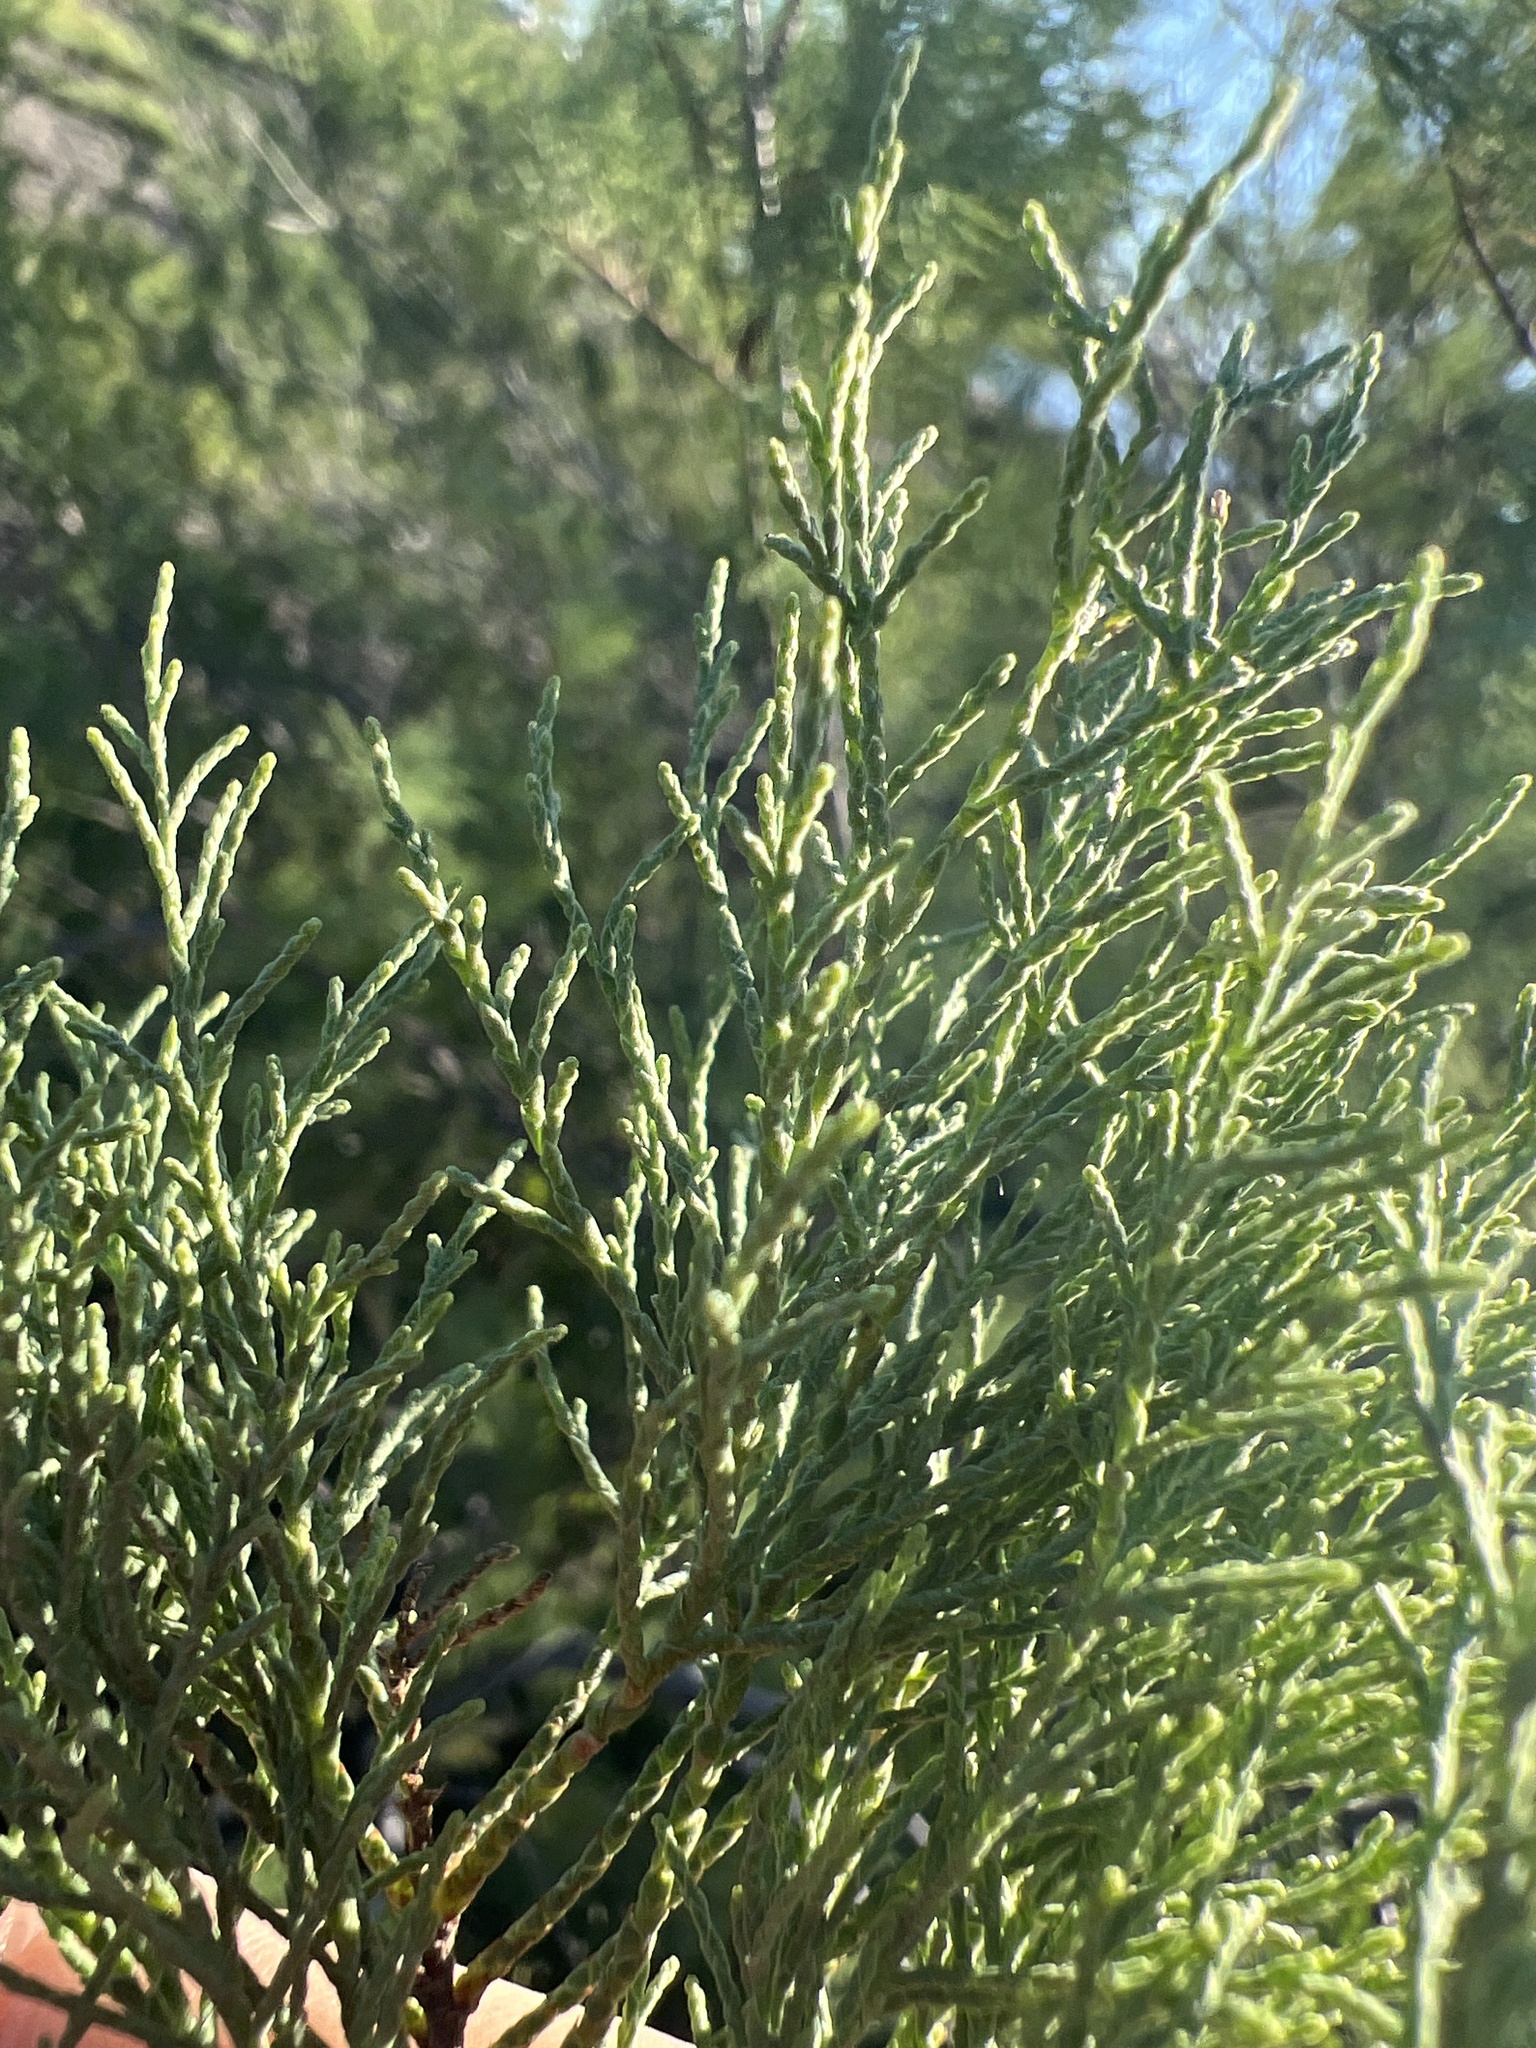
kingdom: Plantae
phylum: Tracheophyta
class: Magnoliopsida
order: Caryophyllales
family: Tamaricaceae
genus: Tamarix
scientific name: Tamarix
